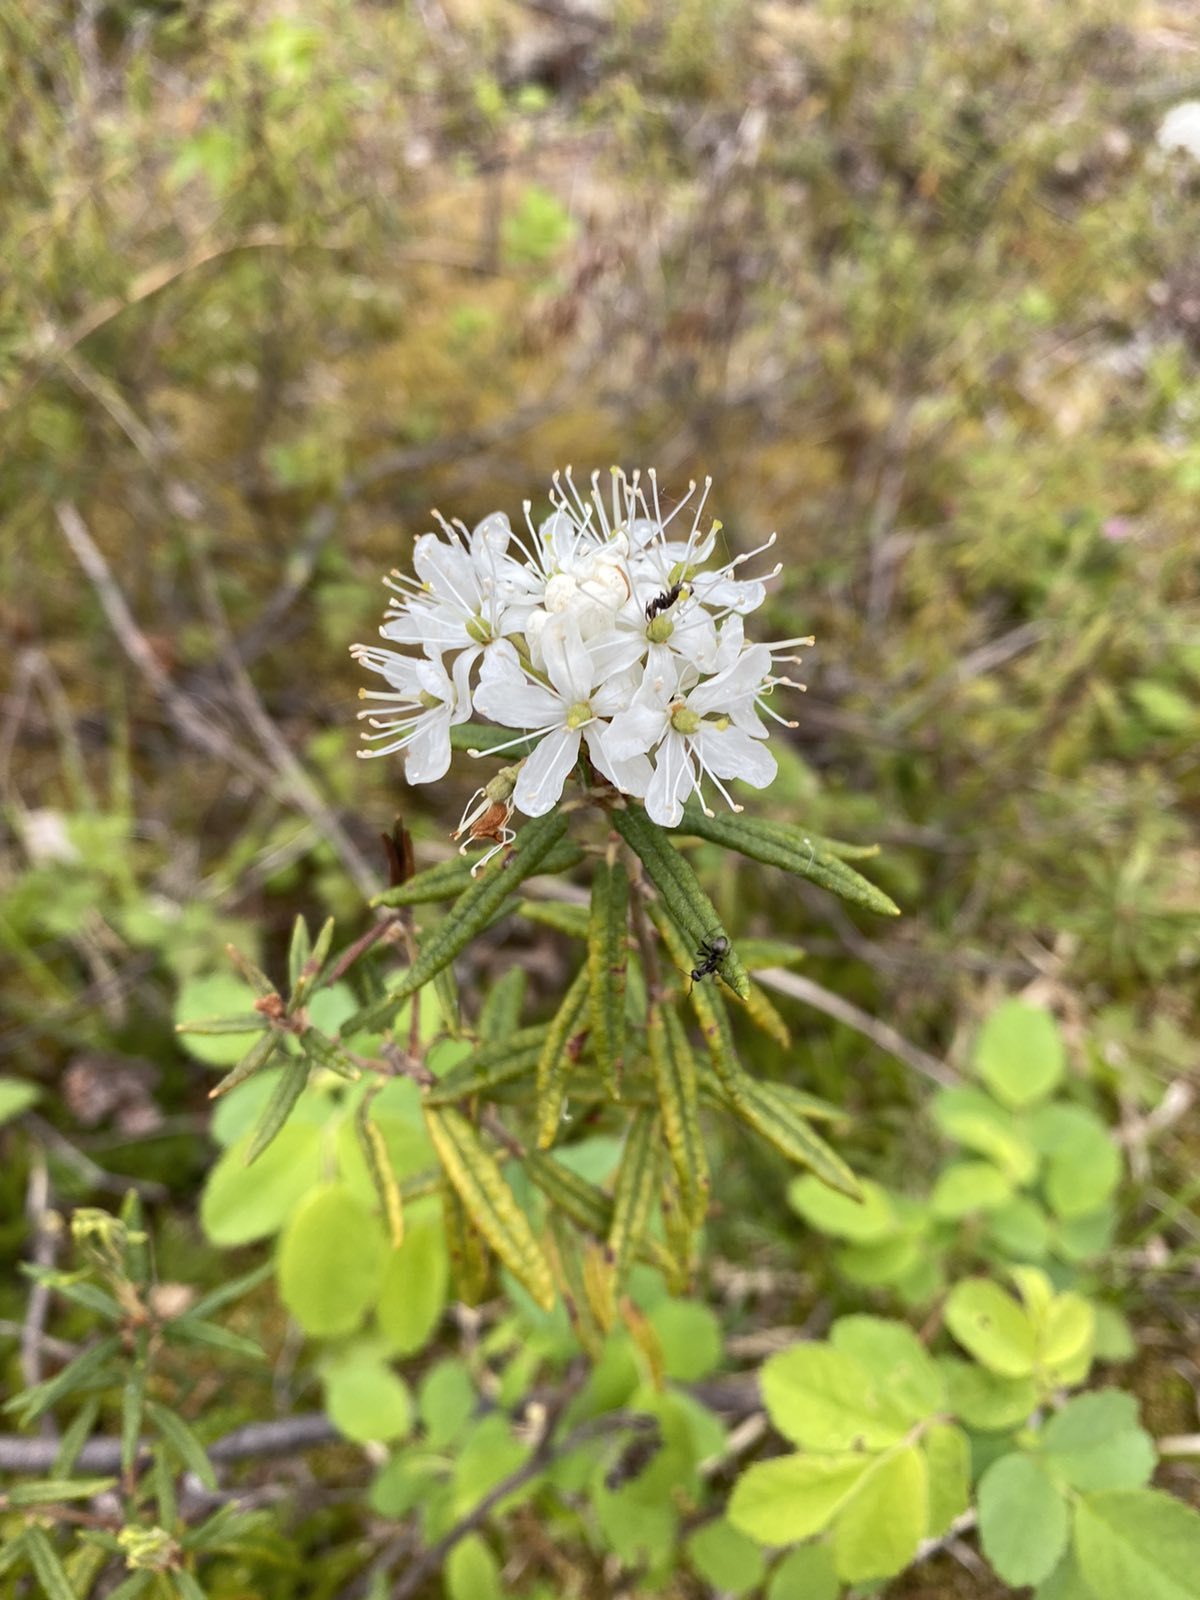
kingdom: Plantae
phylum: Tracheophyta
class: Magnoliopsida
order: Ericales
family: Ericaceae
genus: Rhododendron
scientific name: Rhododendron tomentosum
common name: Marsh labrador tea
